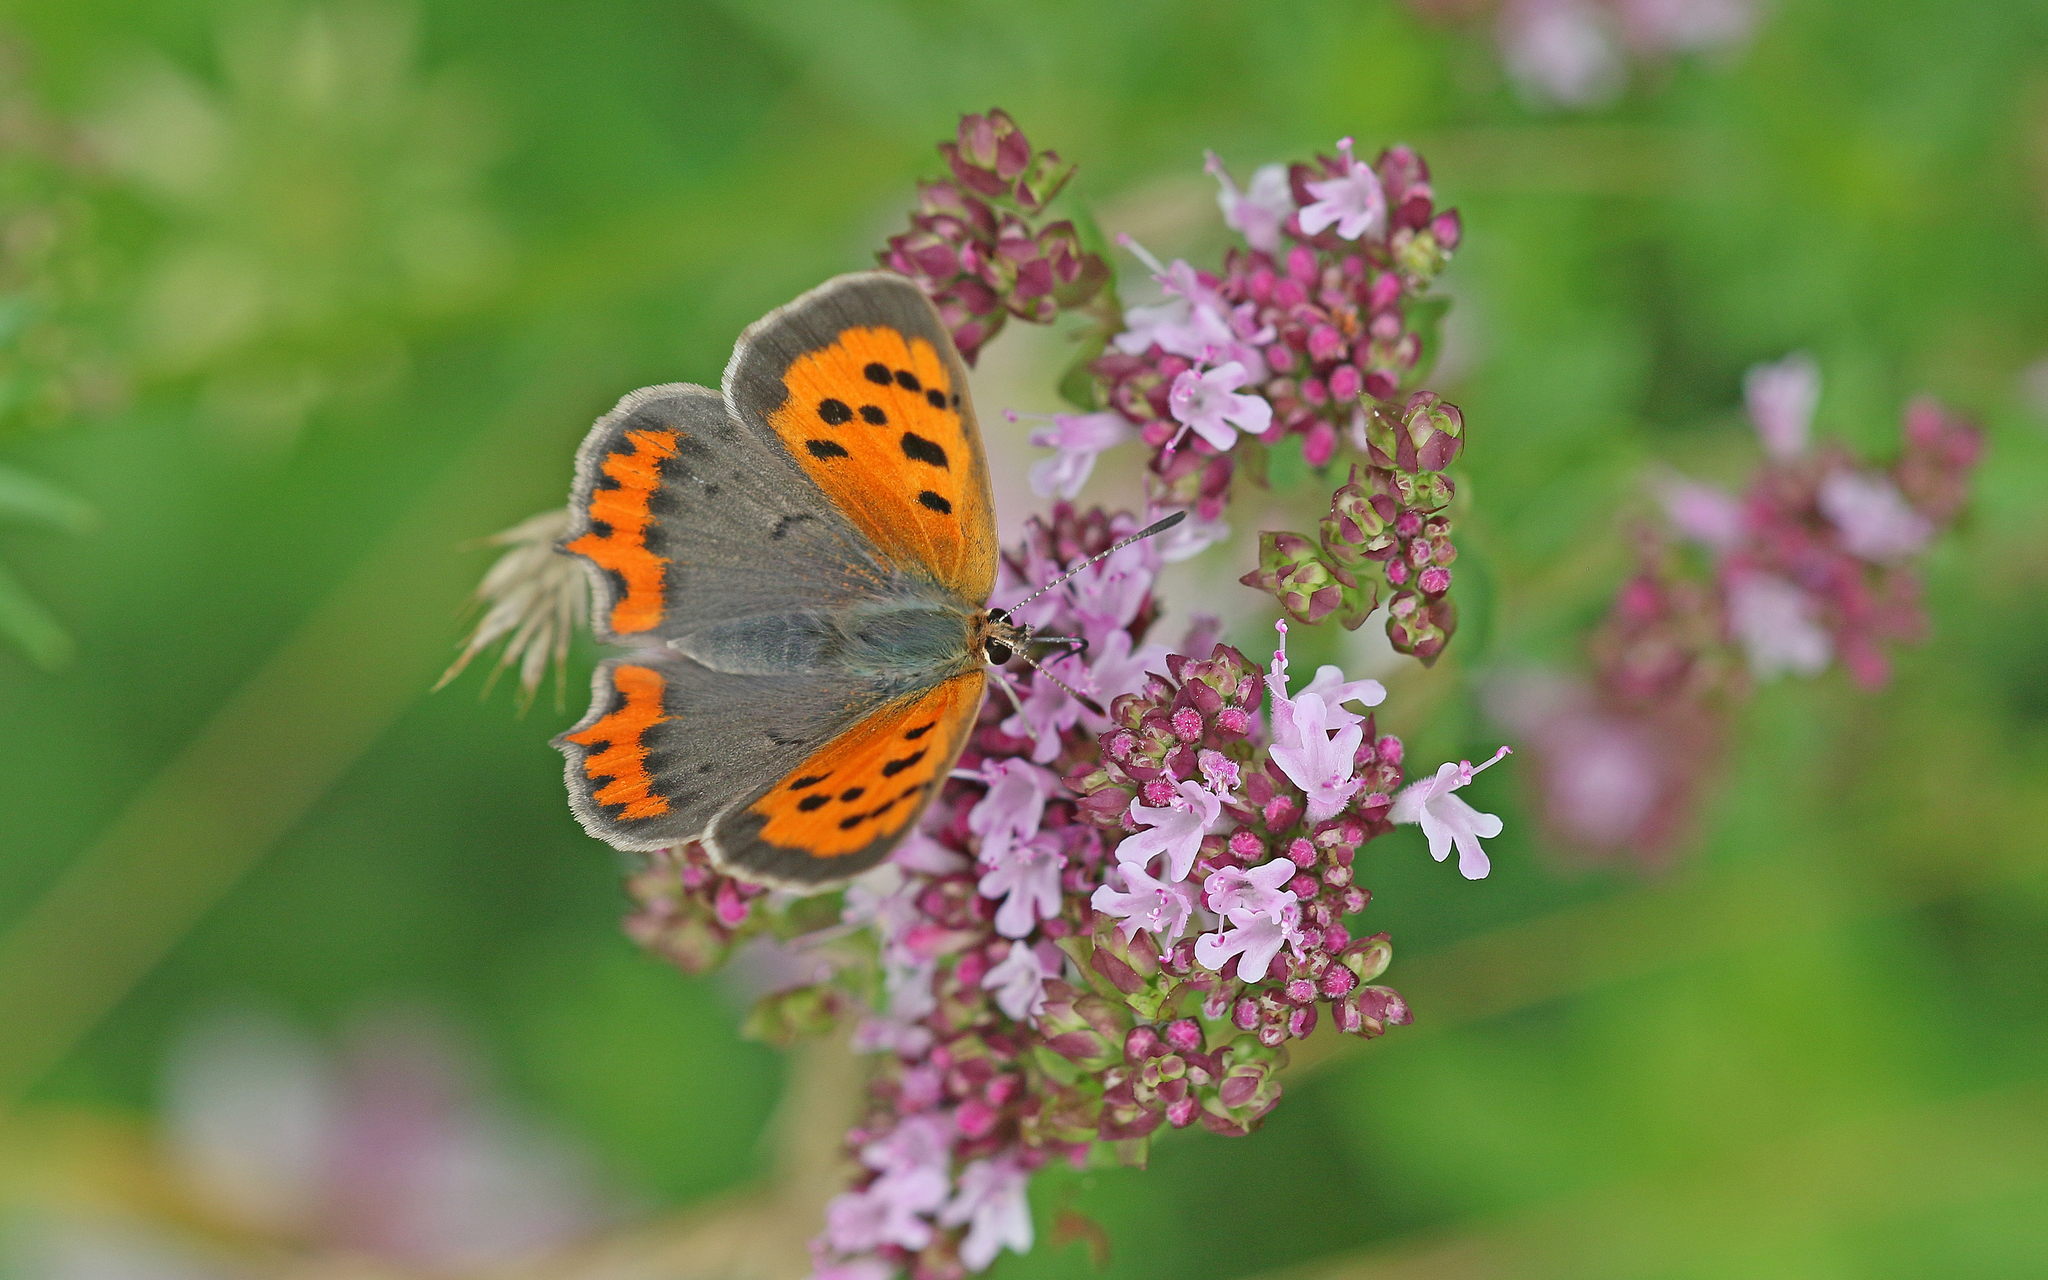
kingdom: Animalia
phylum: Arthropoda
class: Insecta
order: Lepidoptera
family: Lycaenidae
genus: Lycaena
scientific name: Lycaena phlaeas
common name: Small copper
